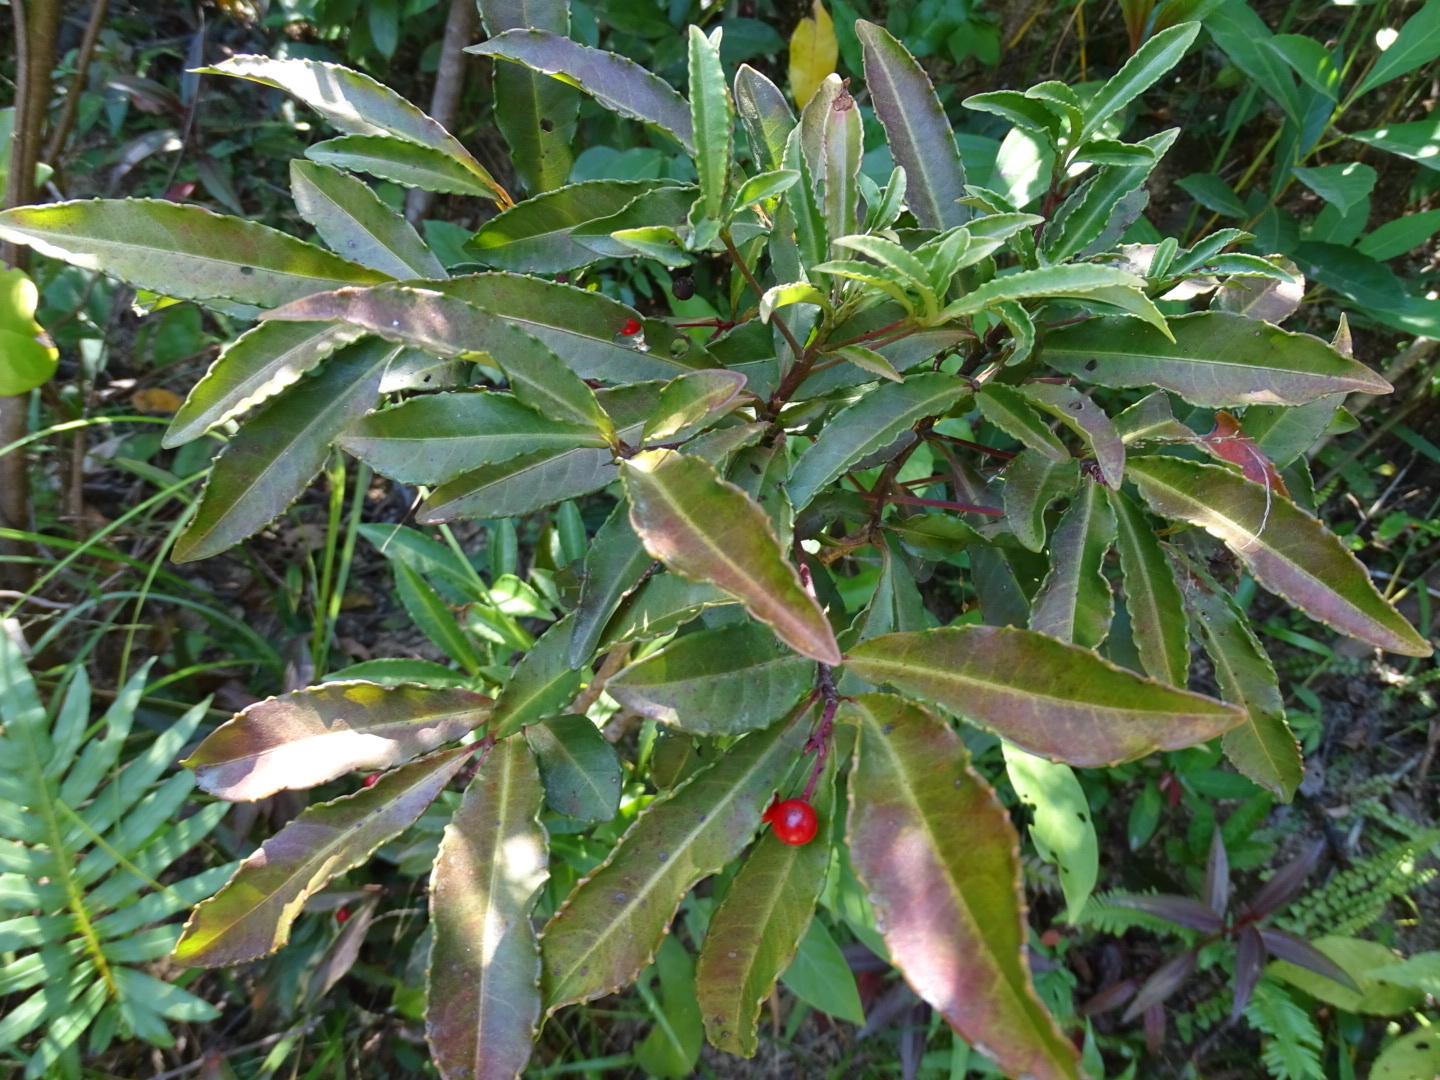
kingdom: Plantae
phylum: Tracheophyta
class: Magnoliopsida
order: Ericales
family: Primulaceae
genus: Ardisia
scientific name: Ardisia crenata
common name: Hen's eyes
